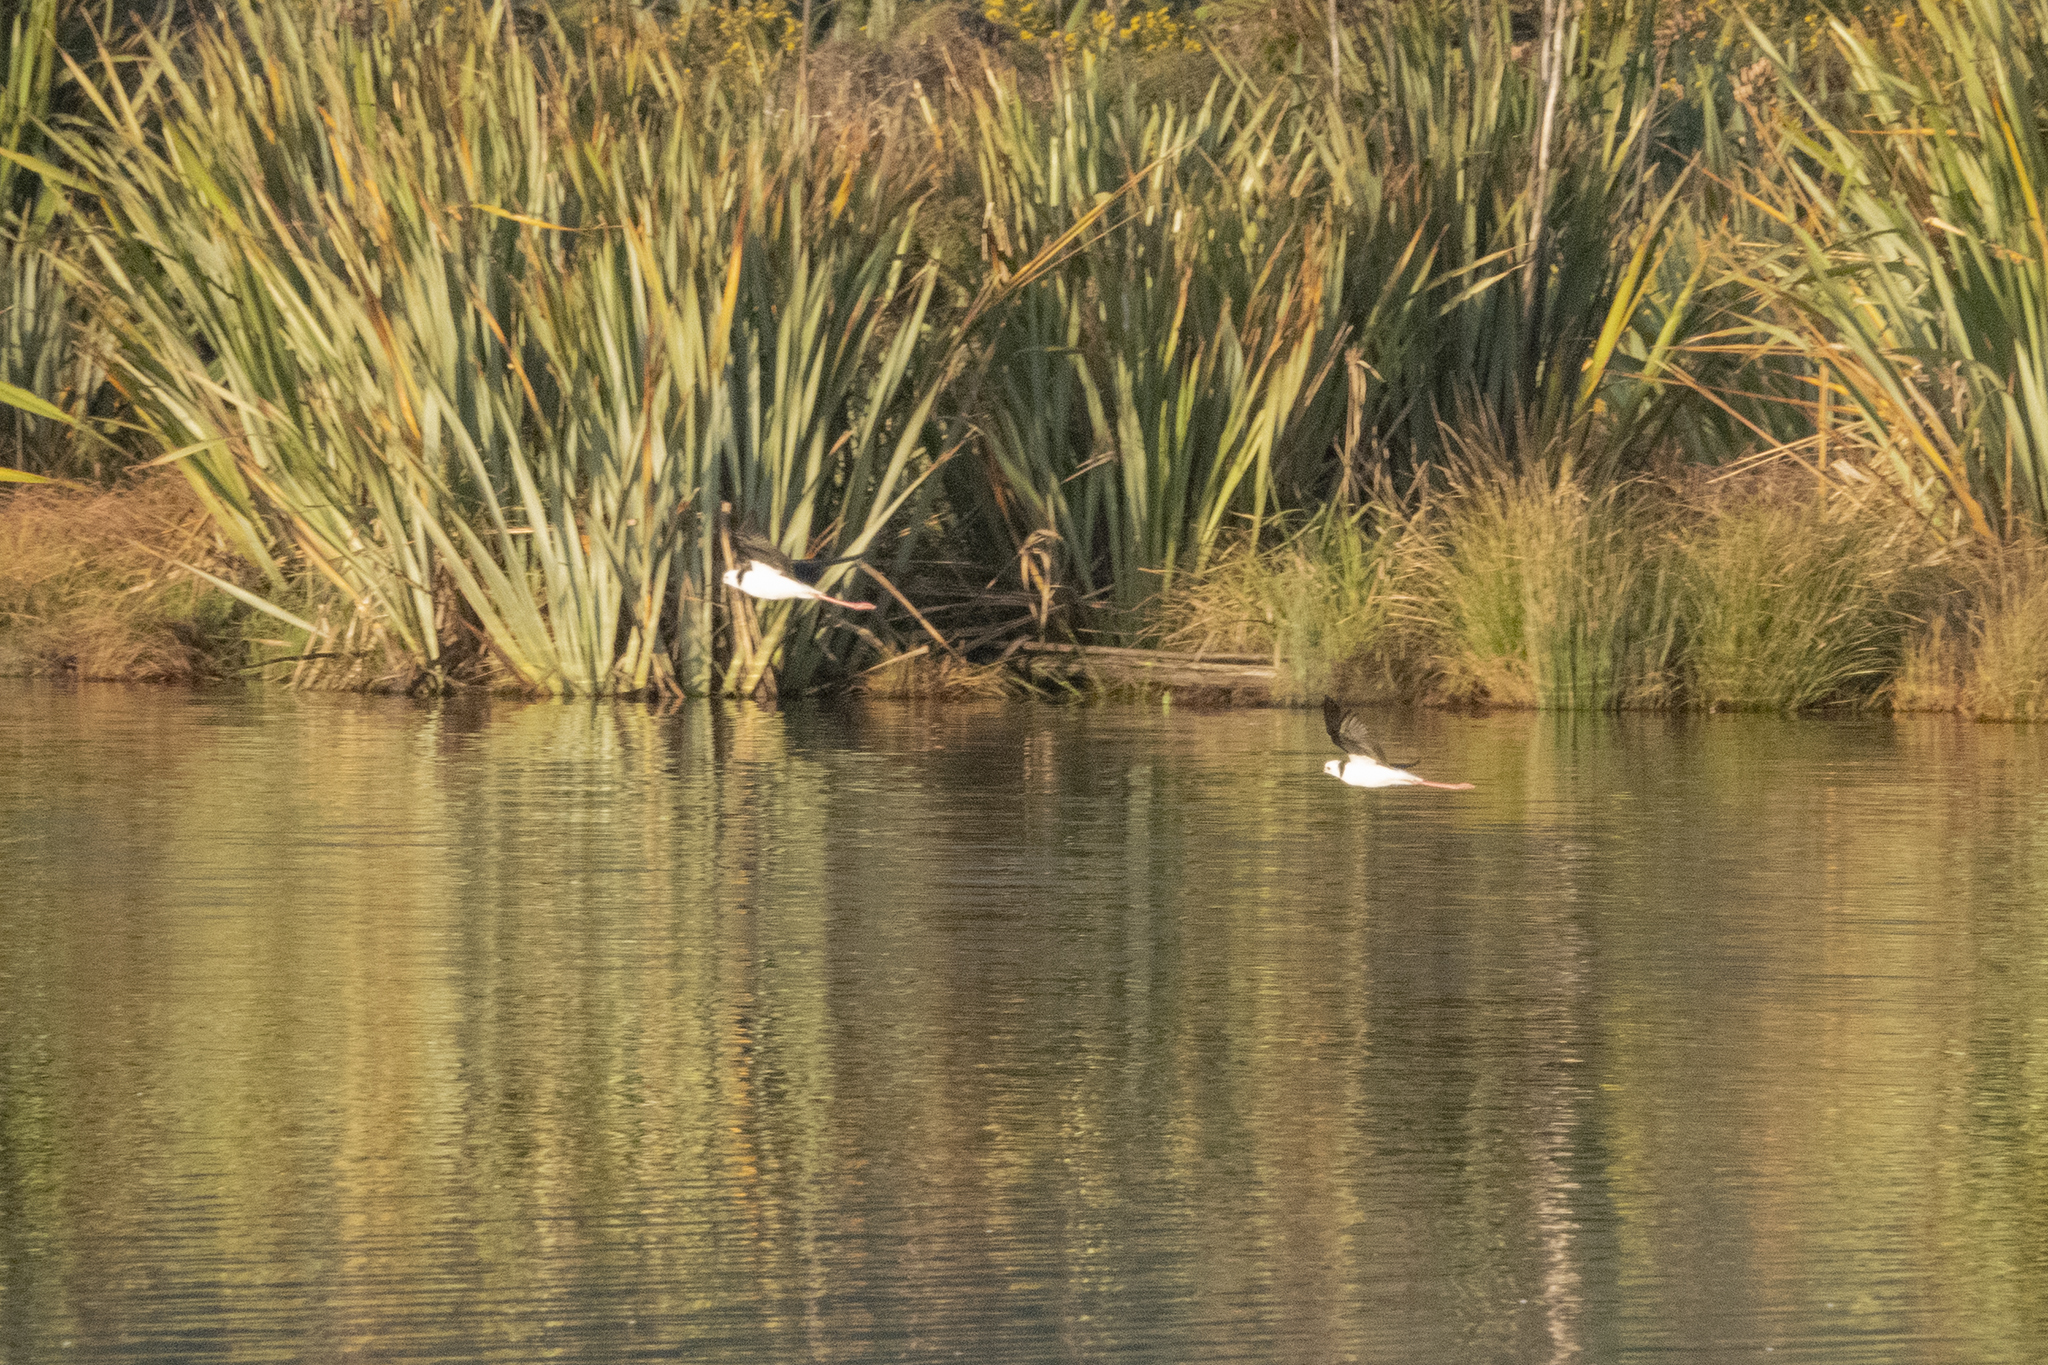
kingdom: Animalia
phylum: Chordata
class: Aves
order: Charadriiformes
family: Recurvirostridae
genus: Himantopus
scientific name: Himantopus leucocephalus
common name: White-headed stilt
